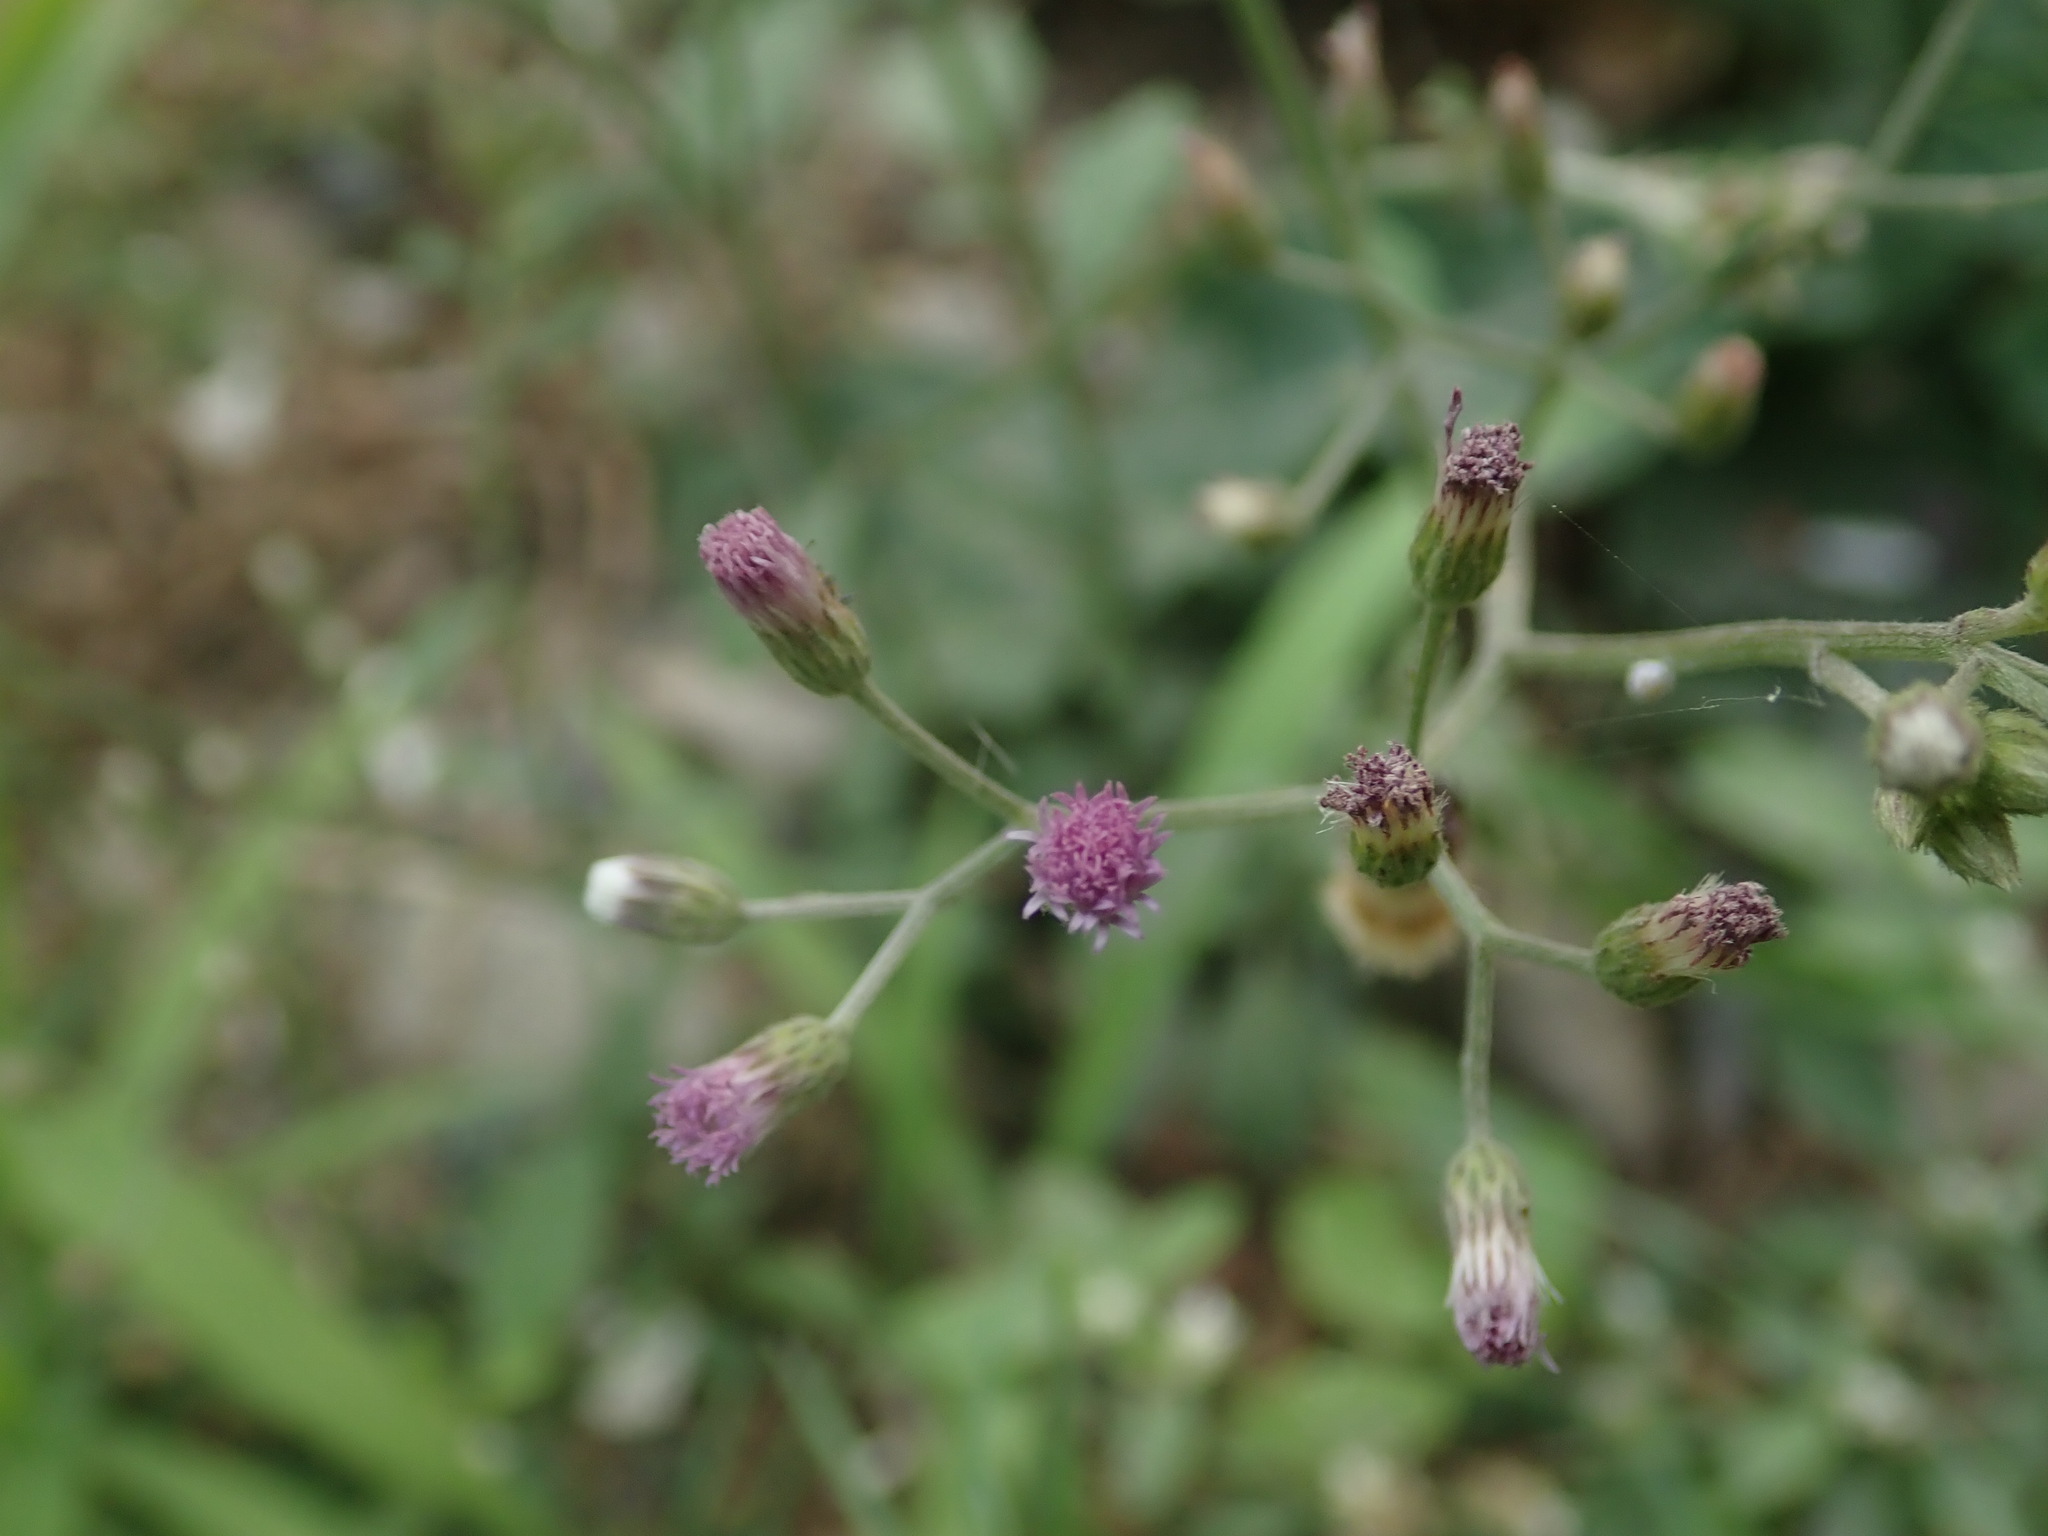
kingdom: Plantae
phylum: Tracheophyta
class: Magnoliopsida
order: Asterales
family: Asteraceae
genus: Cyanthillium
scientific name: Cyanthillium cinereum
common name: Little ironweed
